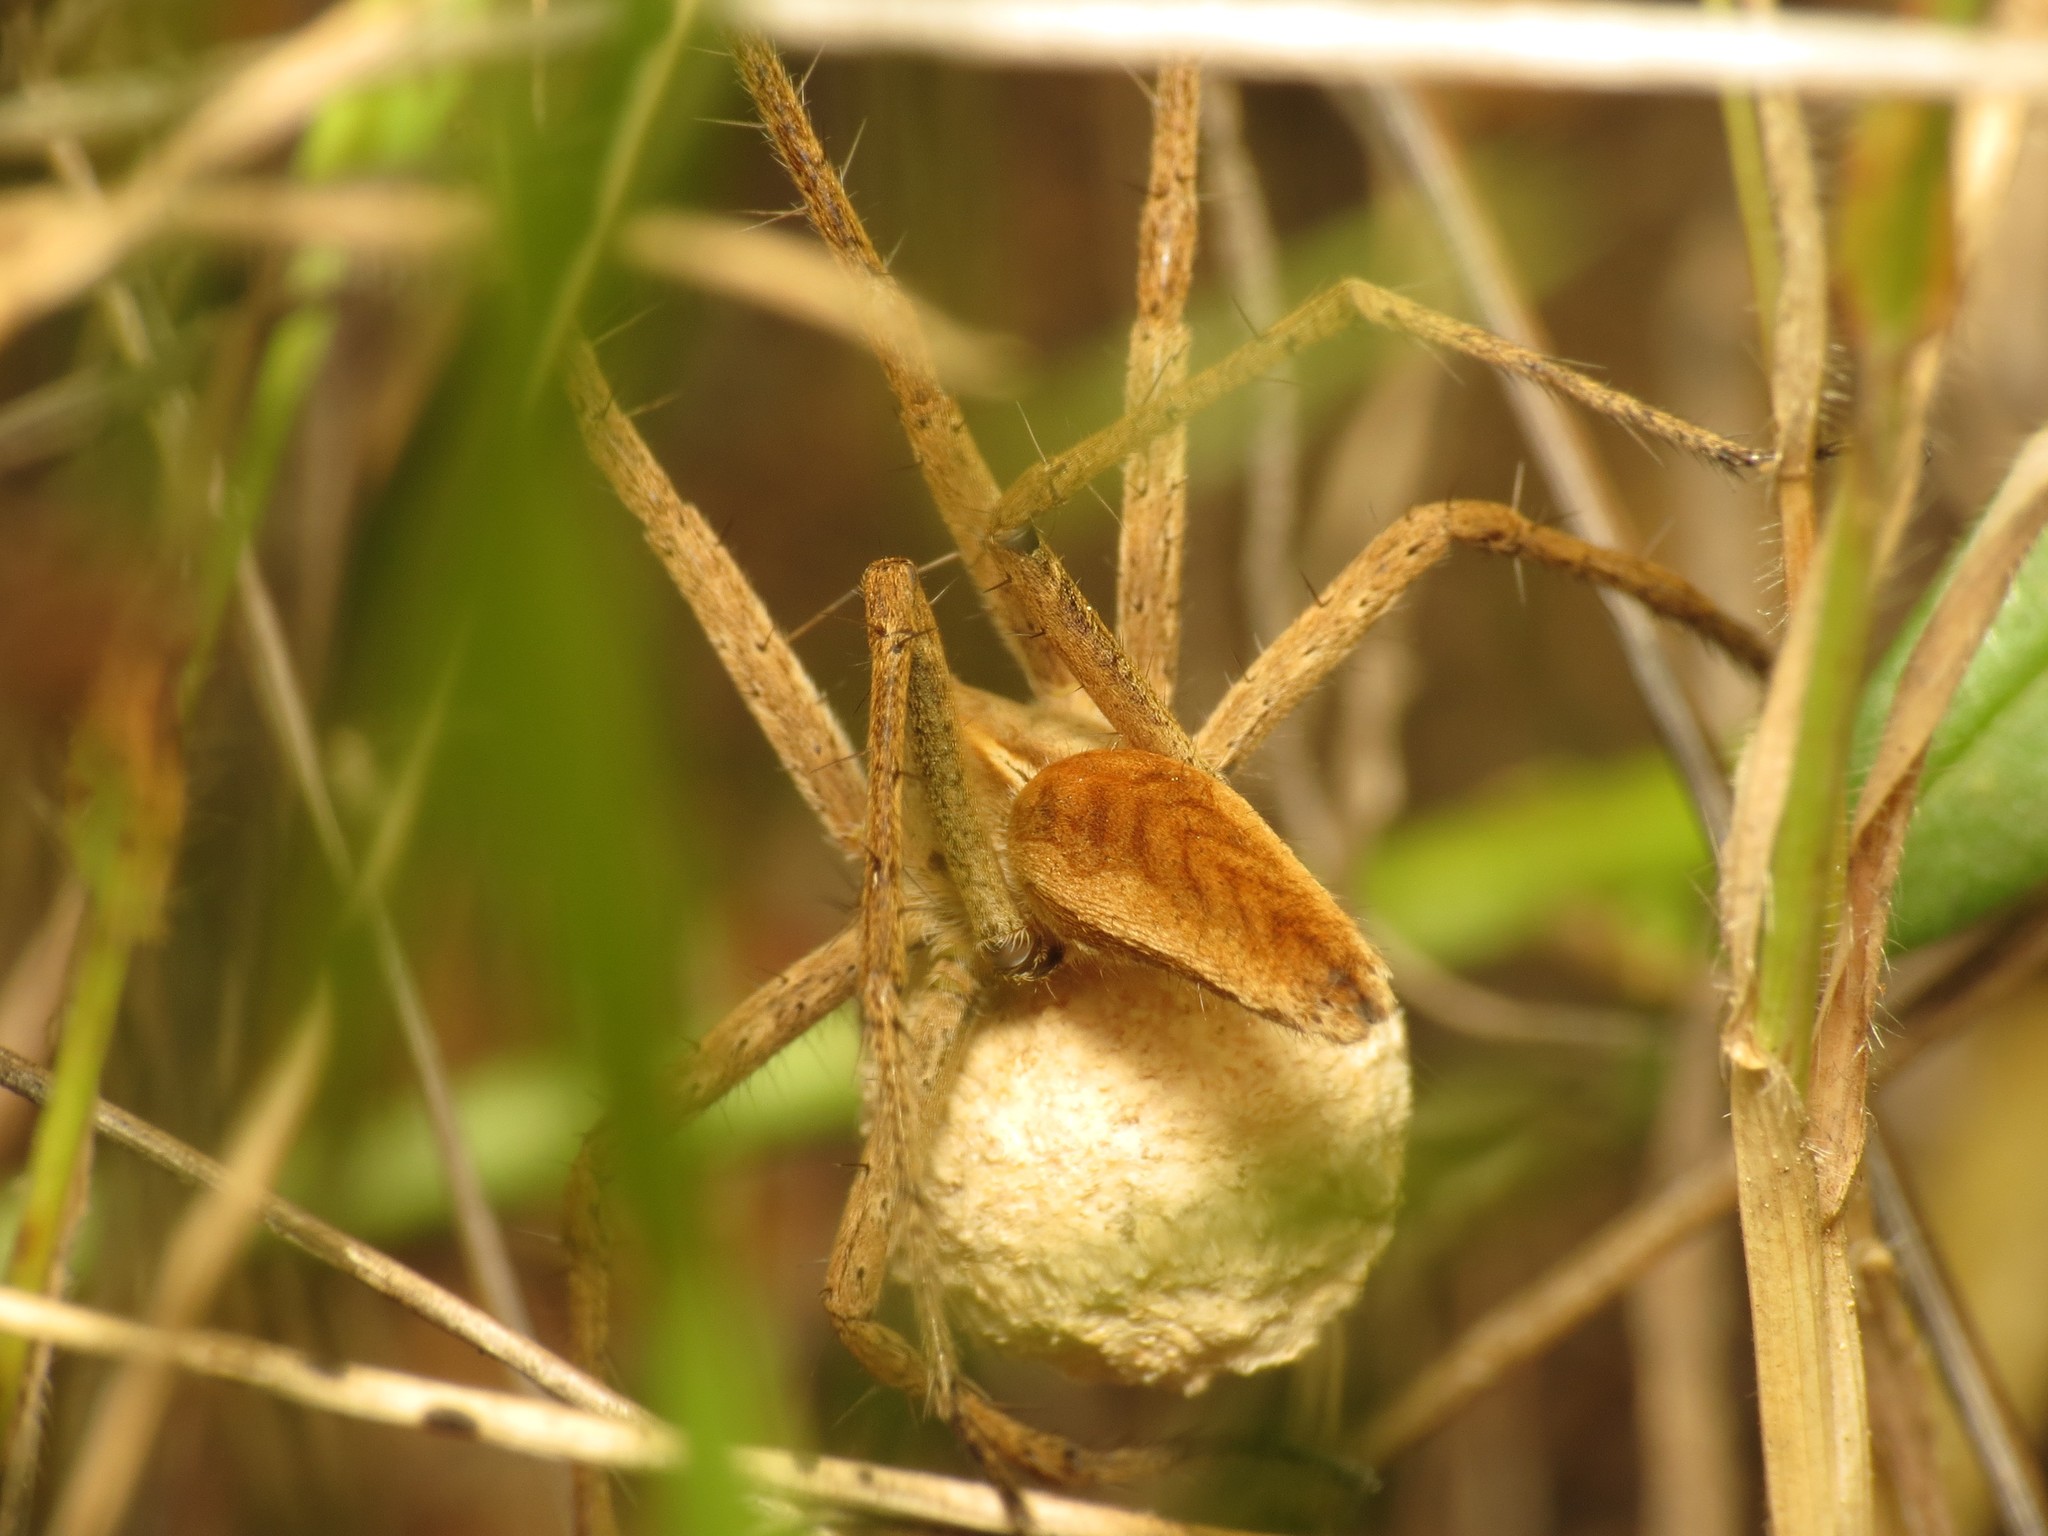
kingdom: Animalia
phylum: Arthropoda
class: Arachnida
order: Araneae
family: Pisauridae
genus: Pisaura
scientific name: Pisaura mirabilis
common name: Tent spider
